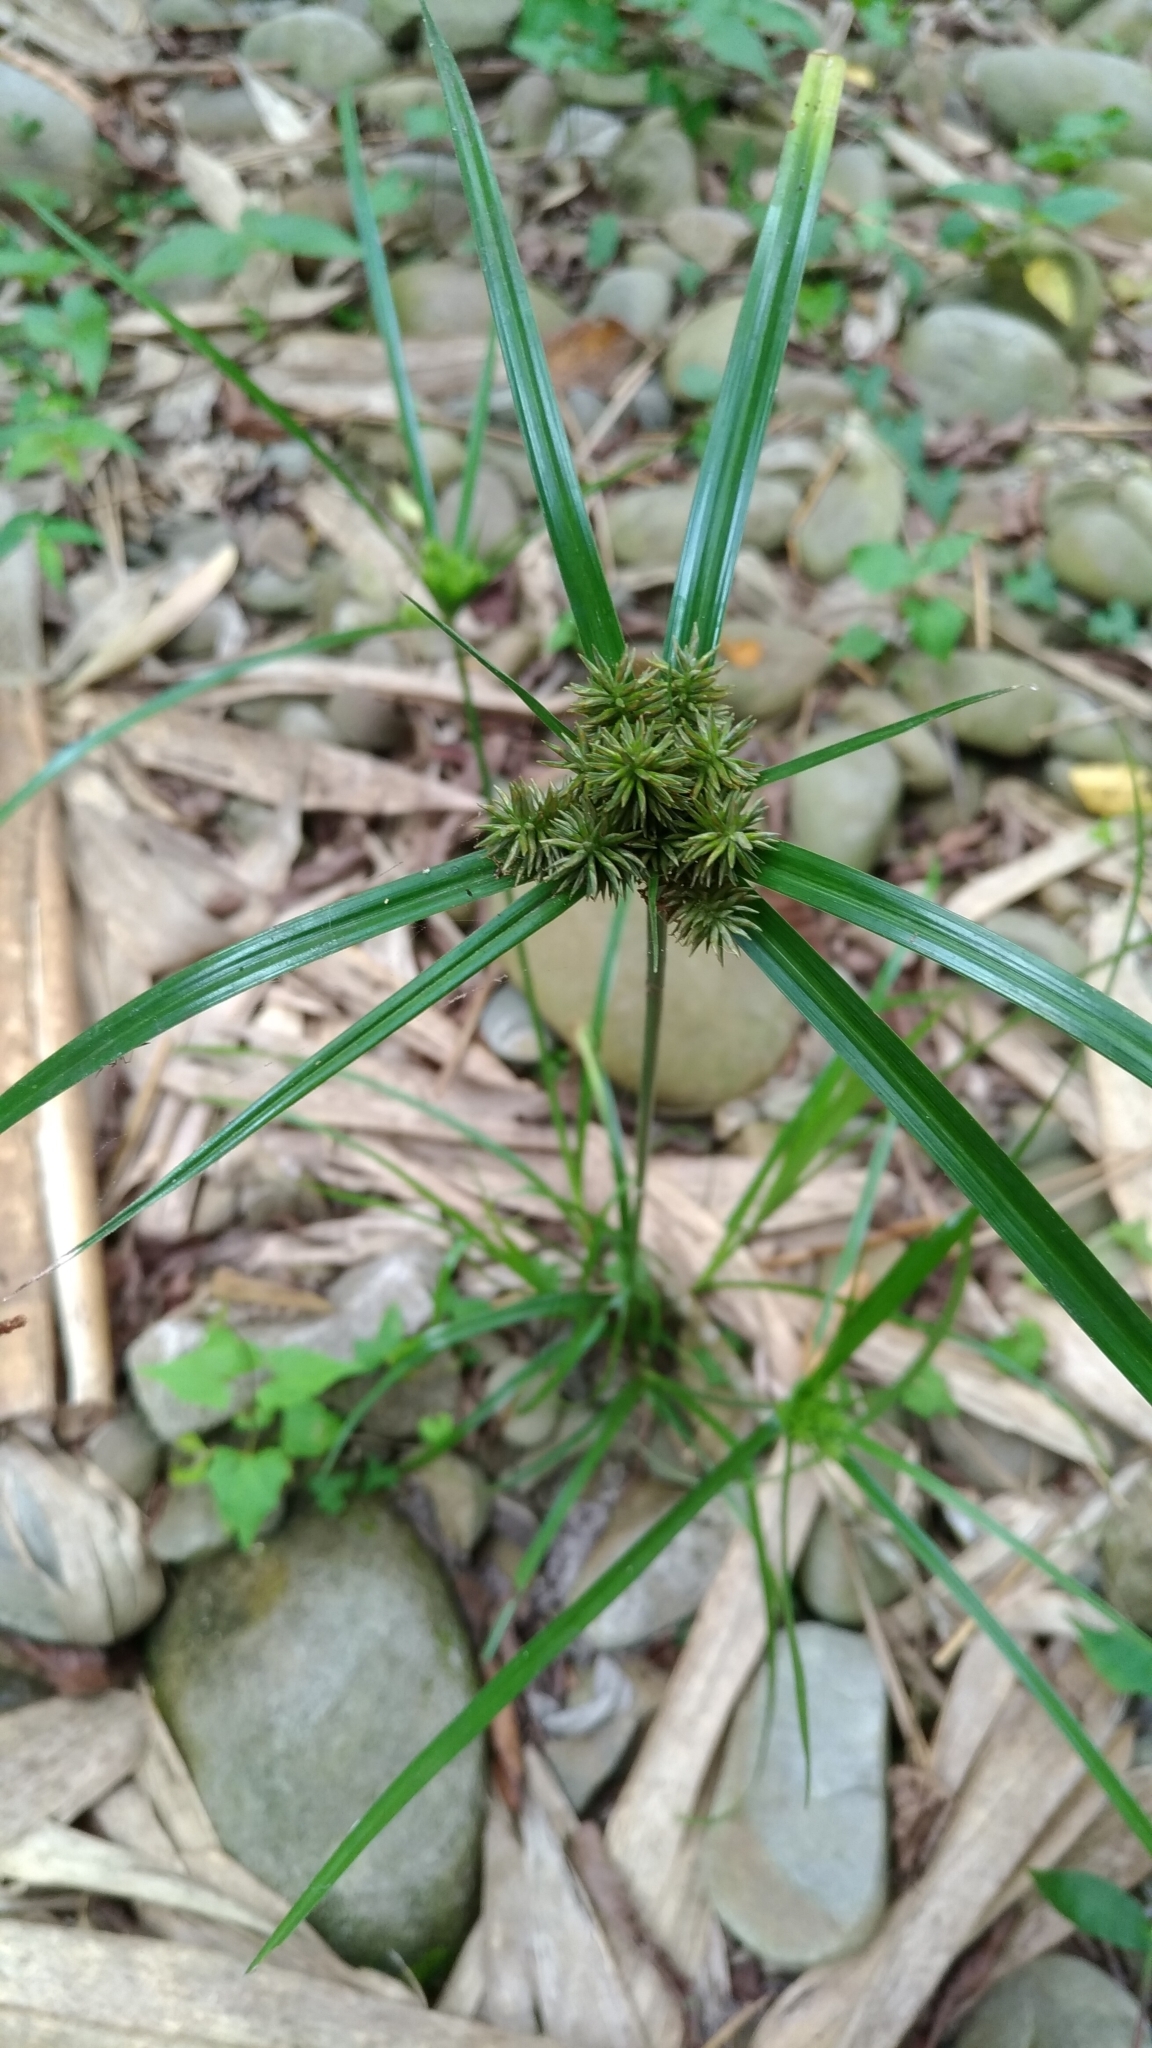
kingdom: Plantae
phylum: Tracheophyta
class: Liliopsida
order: Poales
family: Cyperaceae
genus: Cyperus
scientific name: Cyperus cyperoides
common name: Pacific island flat sedge
